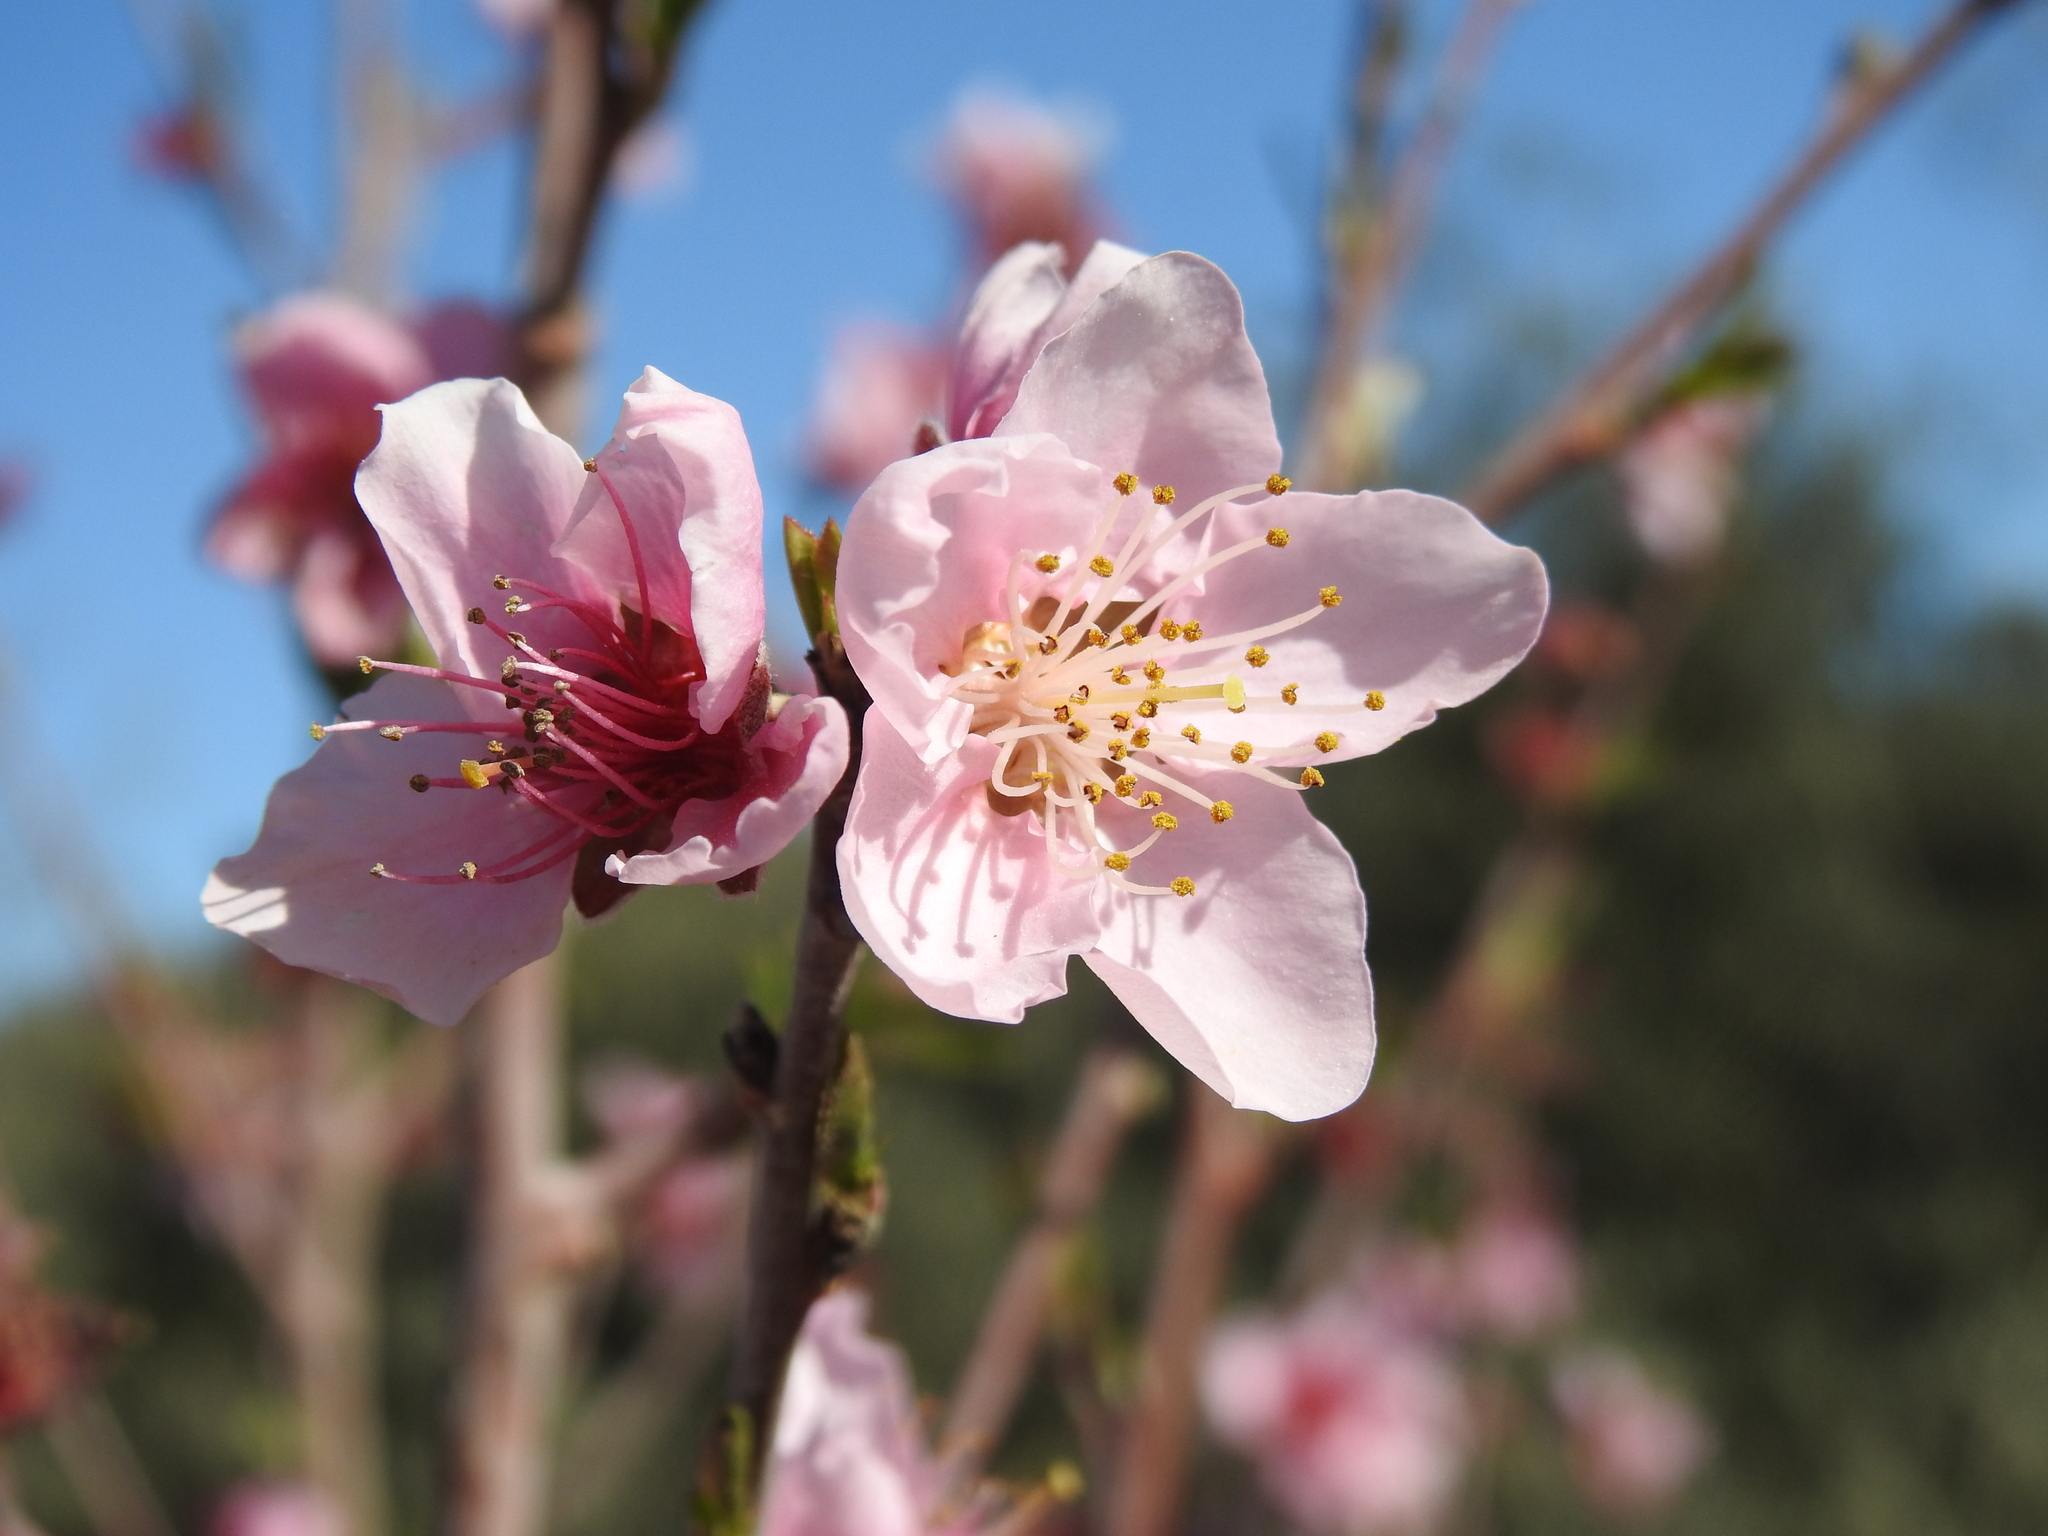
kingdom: Plantae
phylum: Tracheophyta
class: Magnoliopsida
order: Rosales
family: Rosaceae
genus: Prunus
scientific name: Prunus persica
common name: Peach
